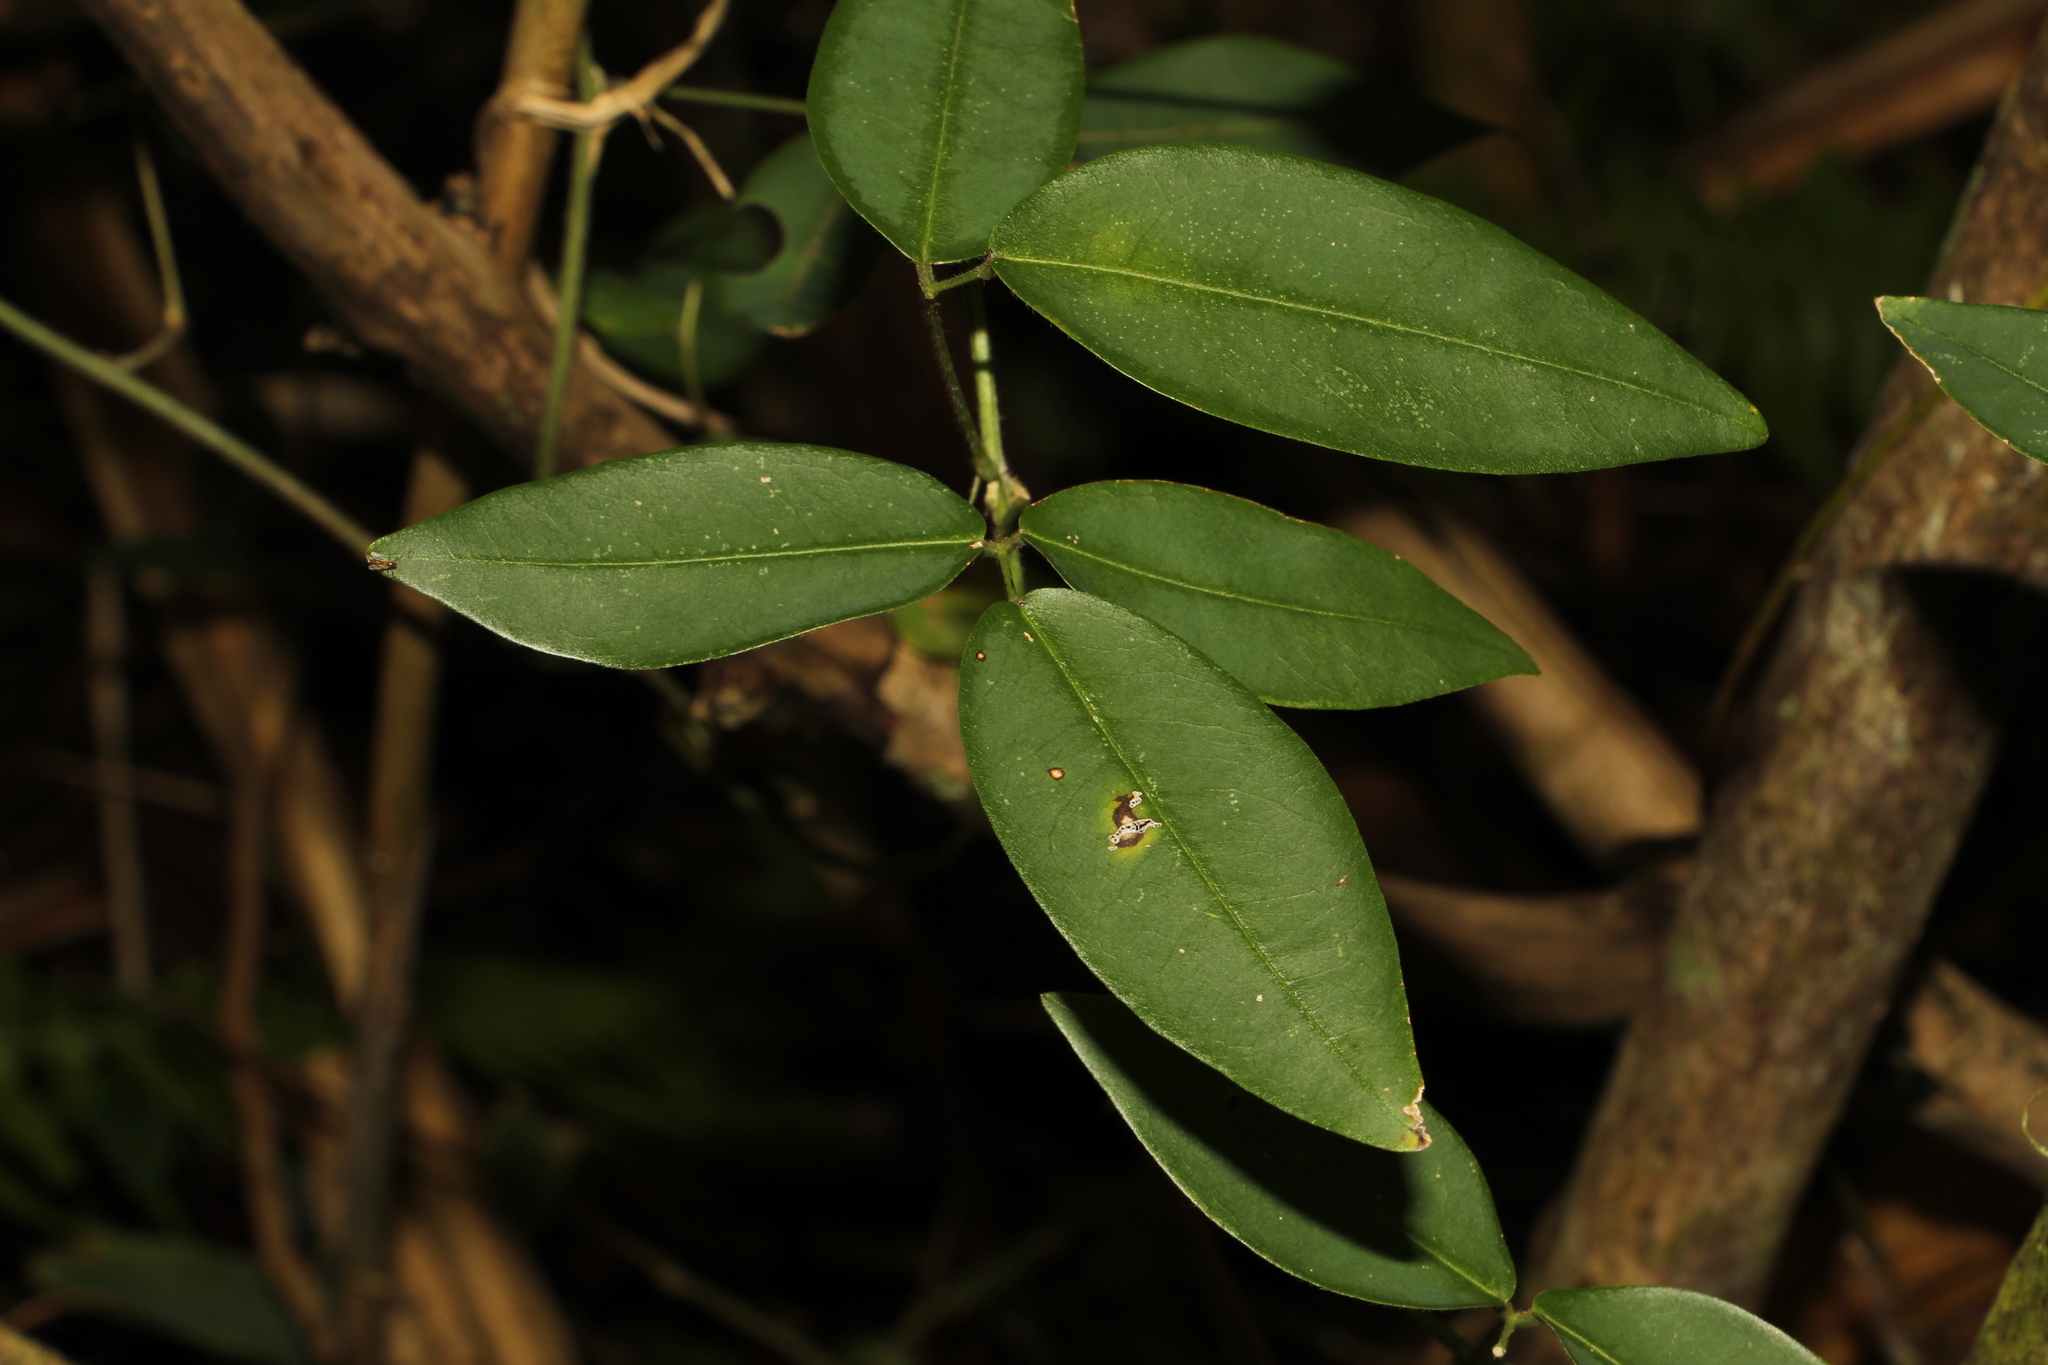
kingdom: Plantae
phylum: Tracheophyta
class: Magnoliopsida
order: Fabales
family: Fabaceae
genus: Calopogonium
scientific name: Calopogonium galactioides
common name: Legume
